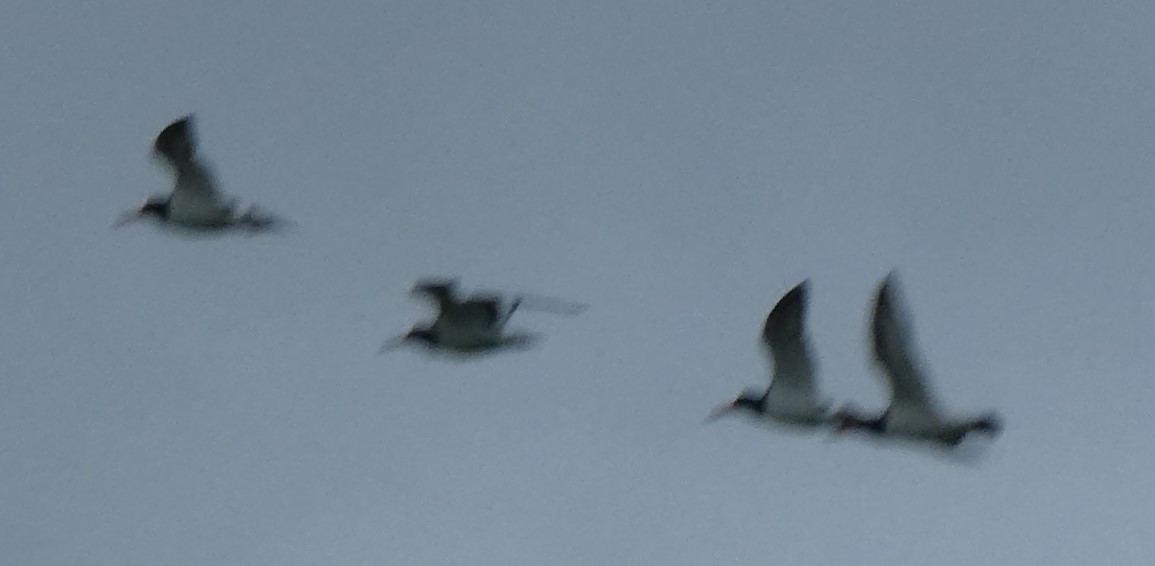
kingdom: Animalia
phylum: Chordata
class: Aves
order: Charadriiformes
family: Haematopodidae
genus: Haematopus
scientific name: Haematopus ostralegus
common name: Eurasian oystercatcher
